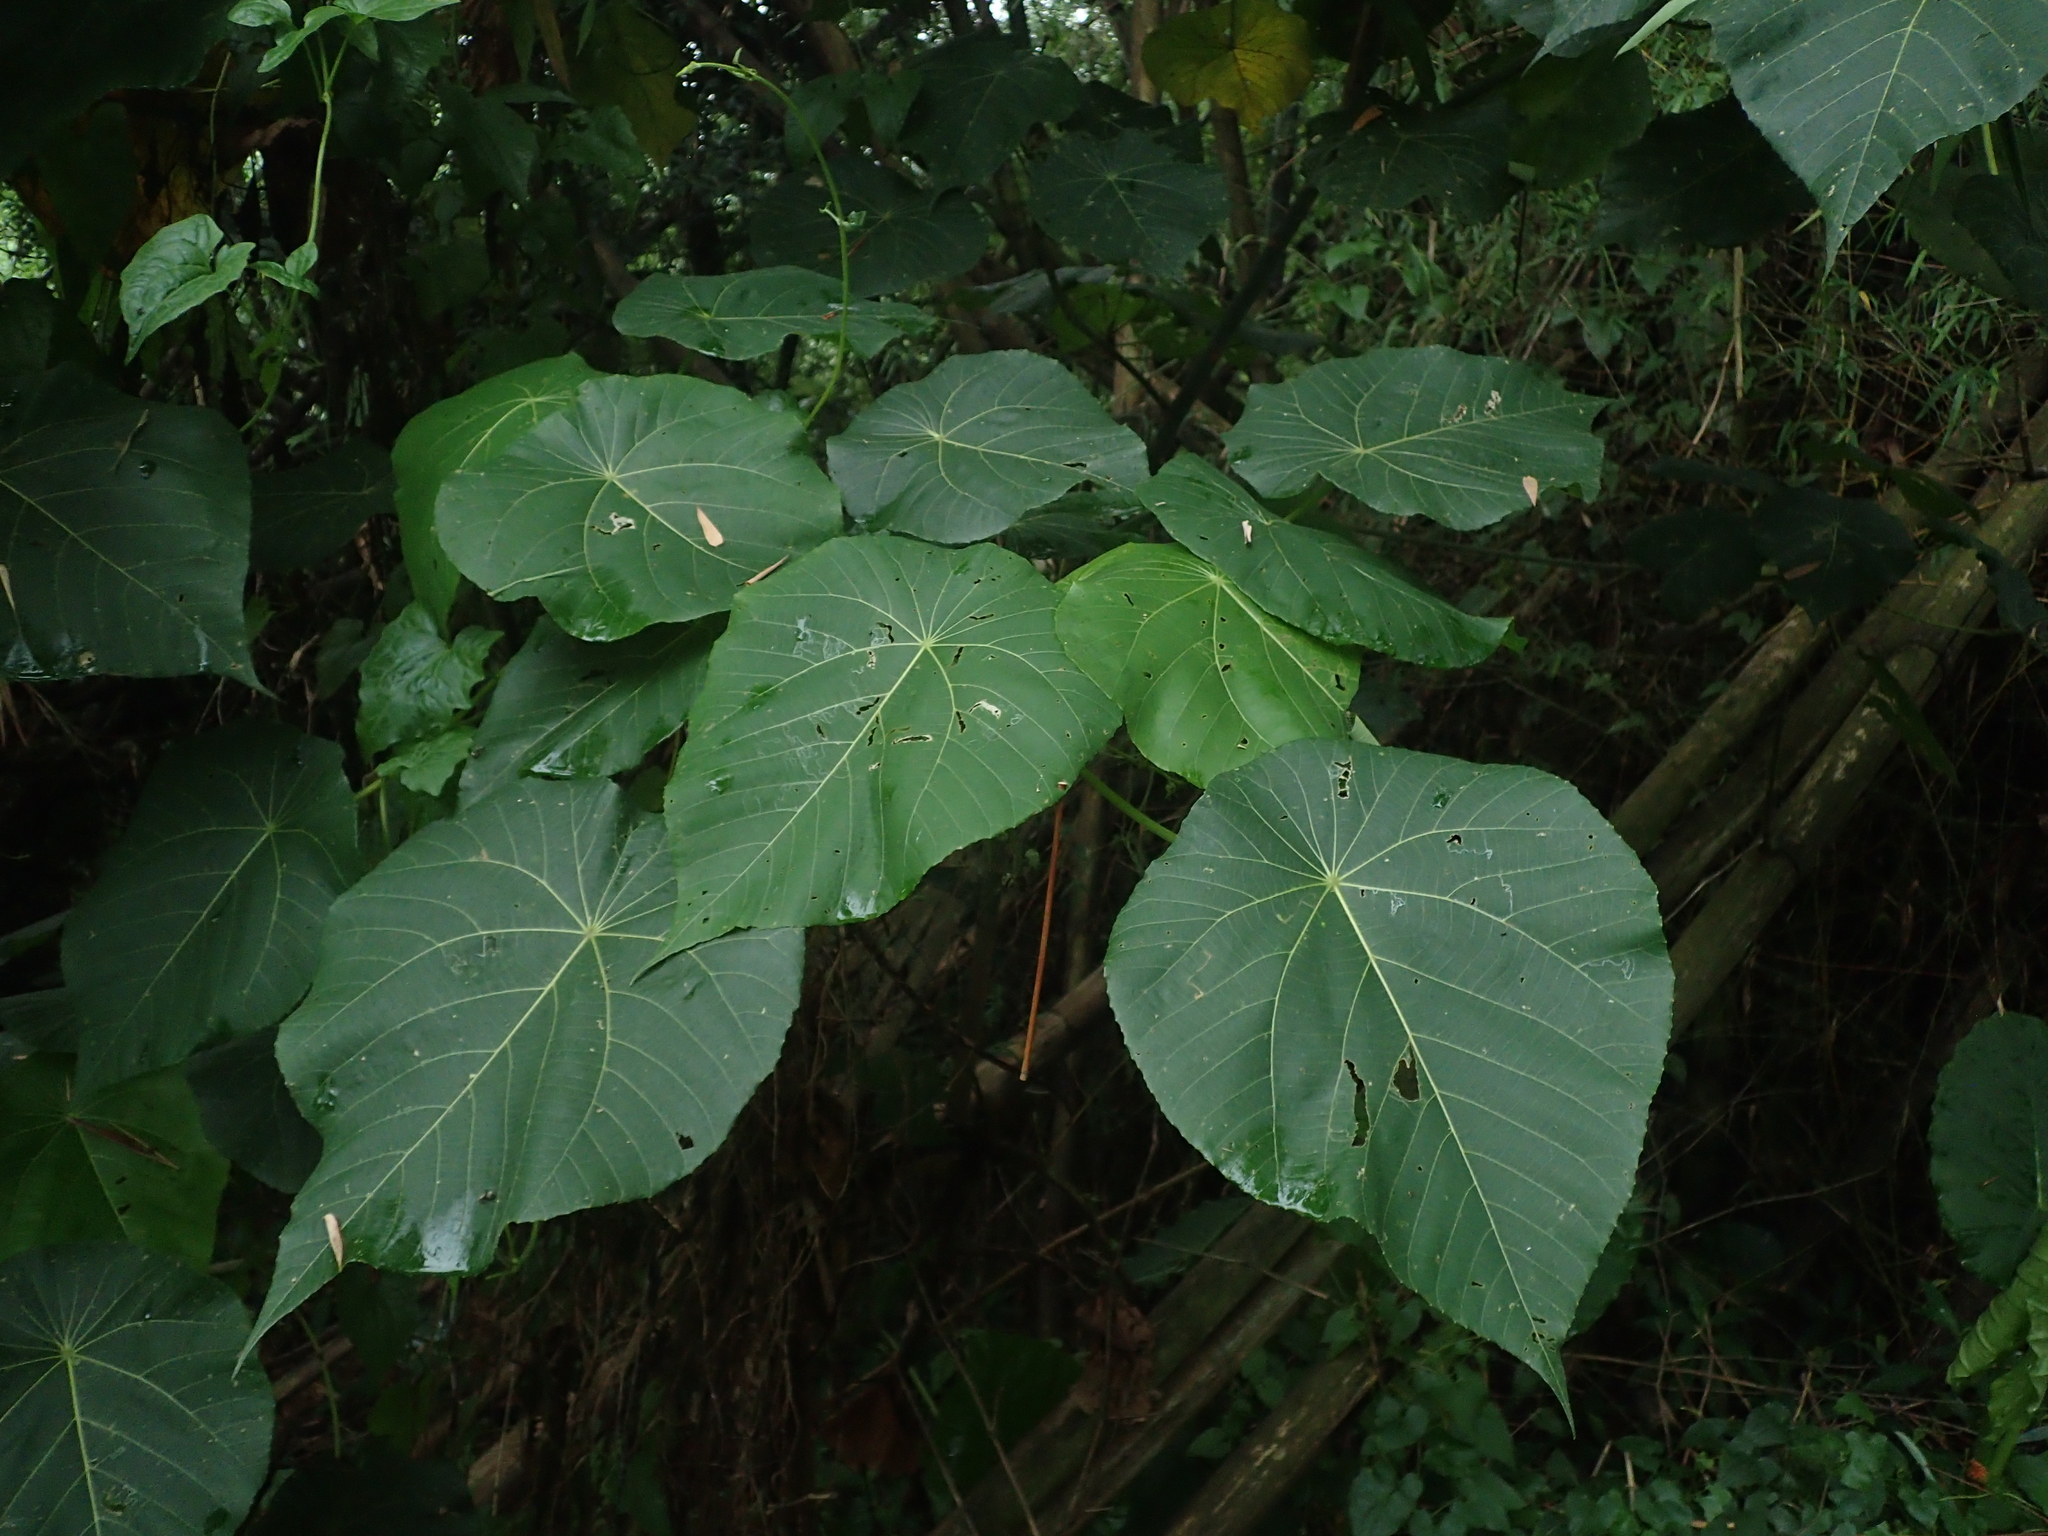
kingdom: Plantae
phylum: Tracheophyta
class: Magnoliopsida
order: Malpighiales
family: Euphorbiaceae
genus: Macaranga
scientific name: Macaranga tanarius
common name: Parasol leaf tree
